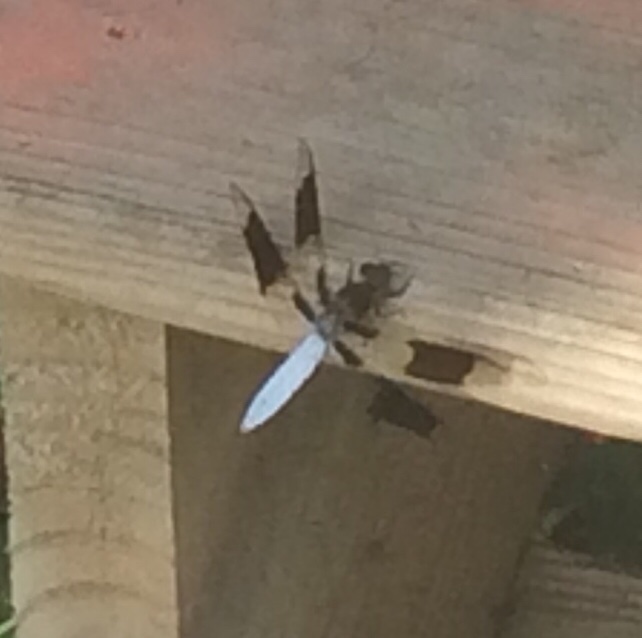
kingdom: Animalia
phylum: Arthropoda
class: Insecta
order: Odonata
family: Libellulidae
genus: Plathemis
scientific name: Plathemis lydia
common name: Common whitetail
